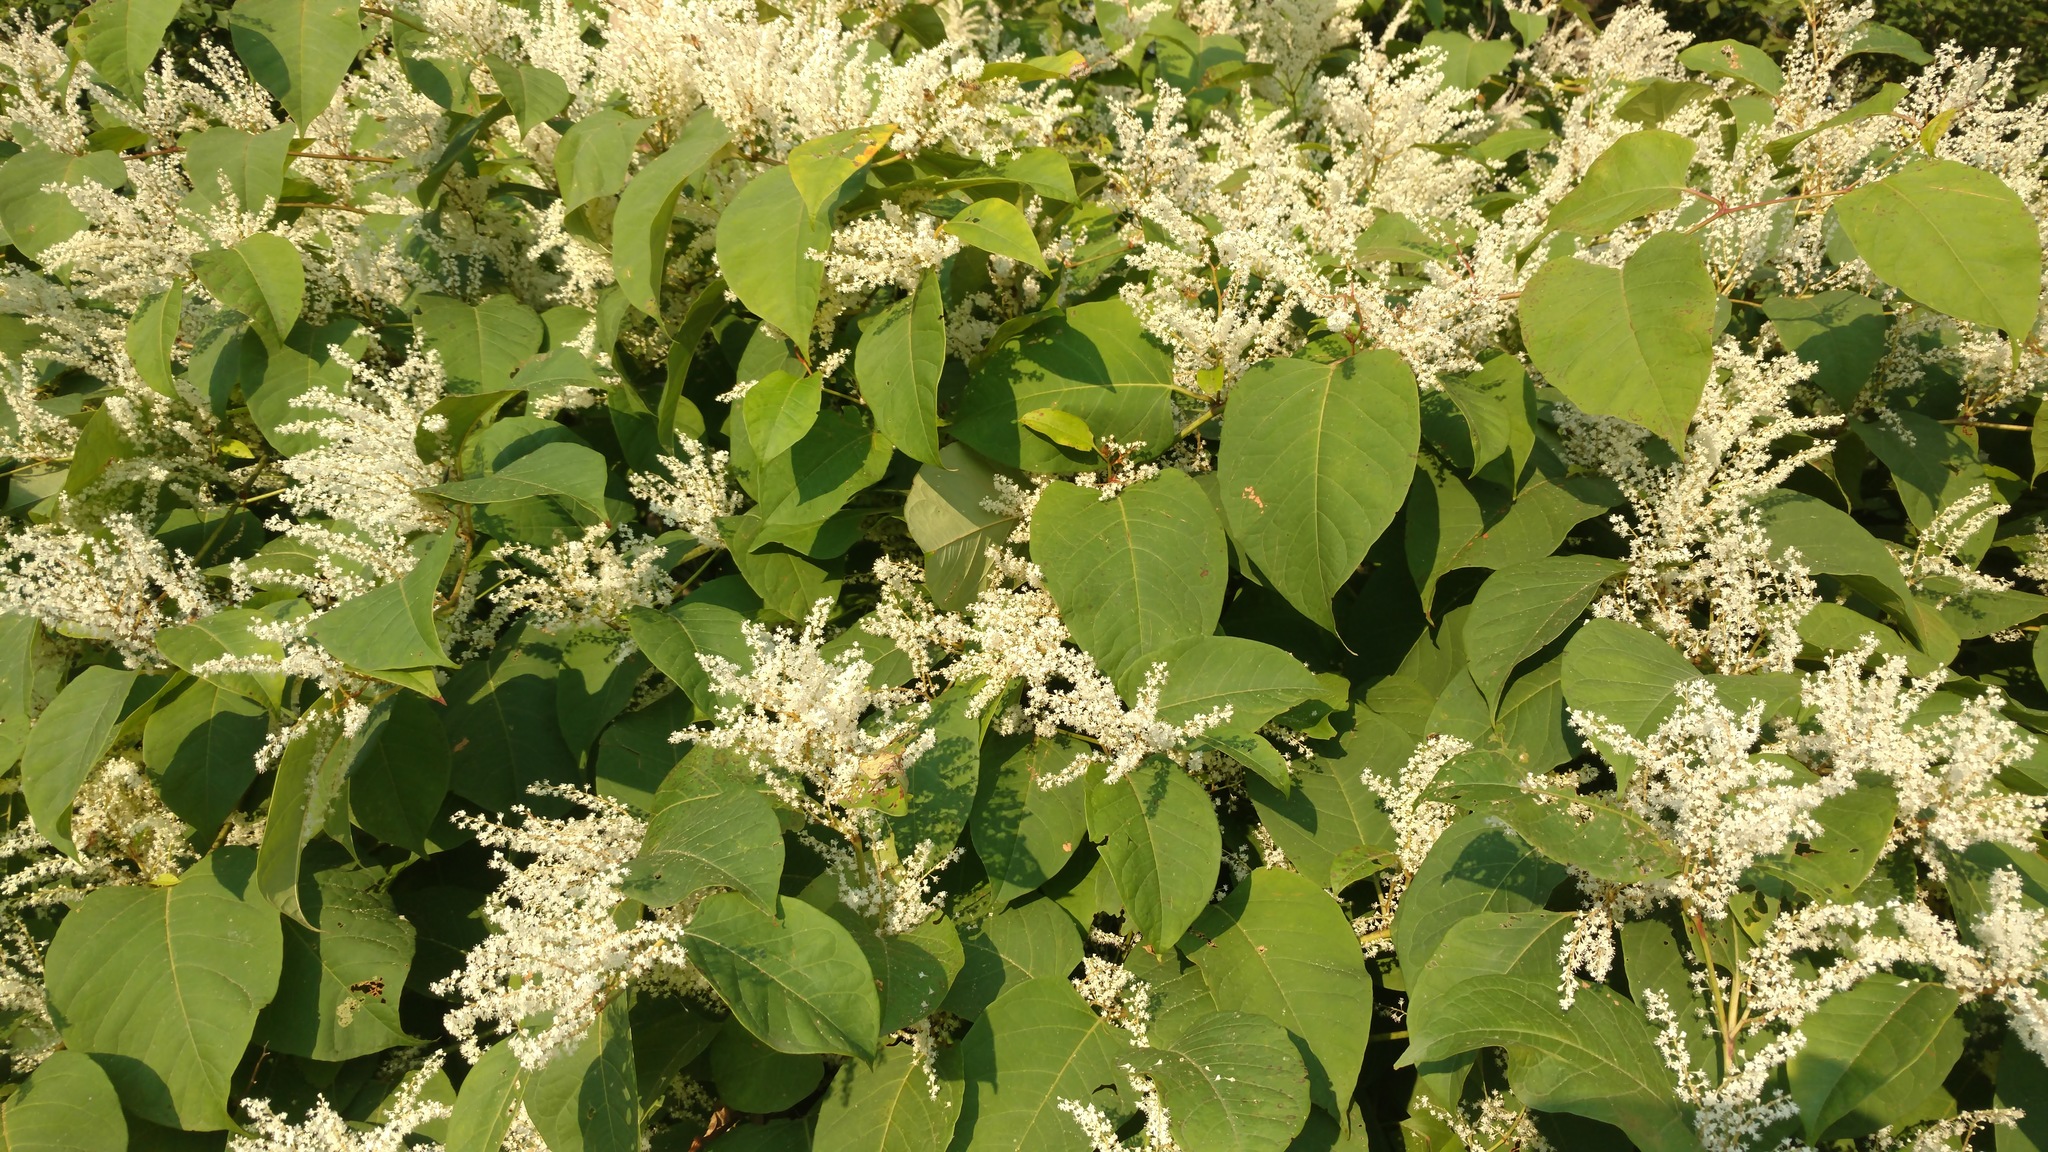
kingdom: Plantae
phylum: Tracheophyta
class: Magnoliopsida
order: Caryophyllales
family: Polygonaceae
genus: Reynoutria
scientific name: Reynoutria japonica
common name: Japanese knotweed
